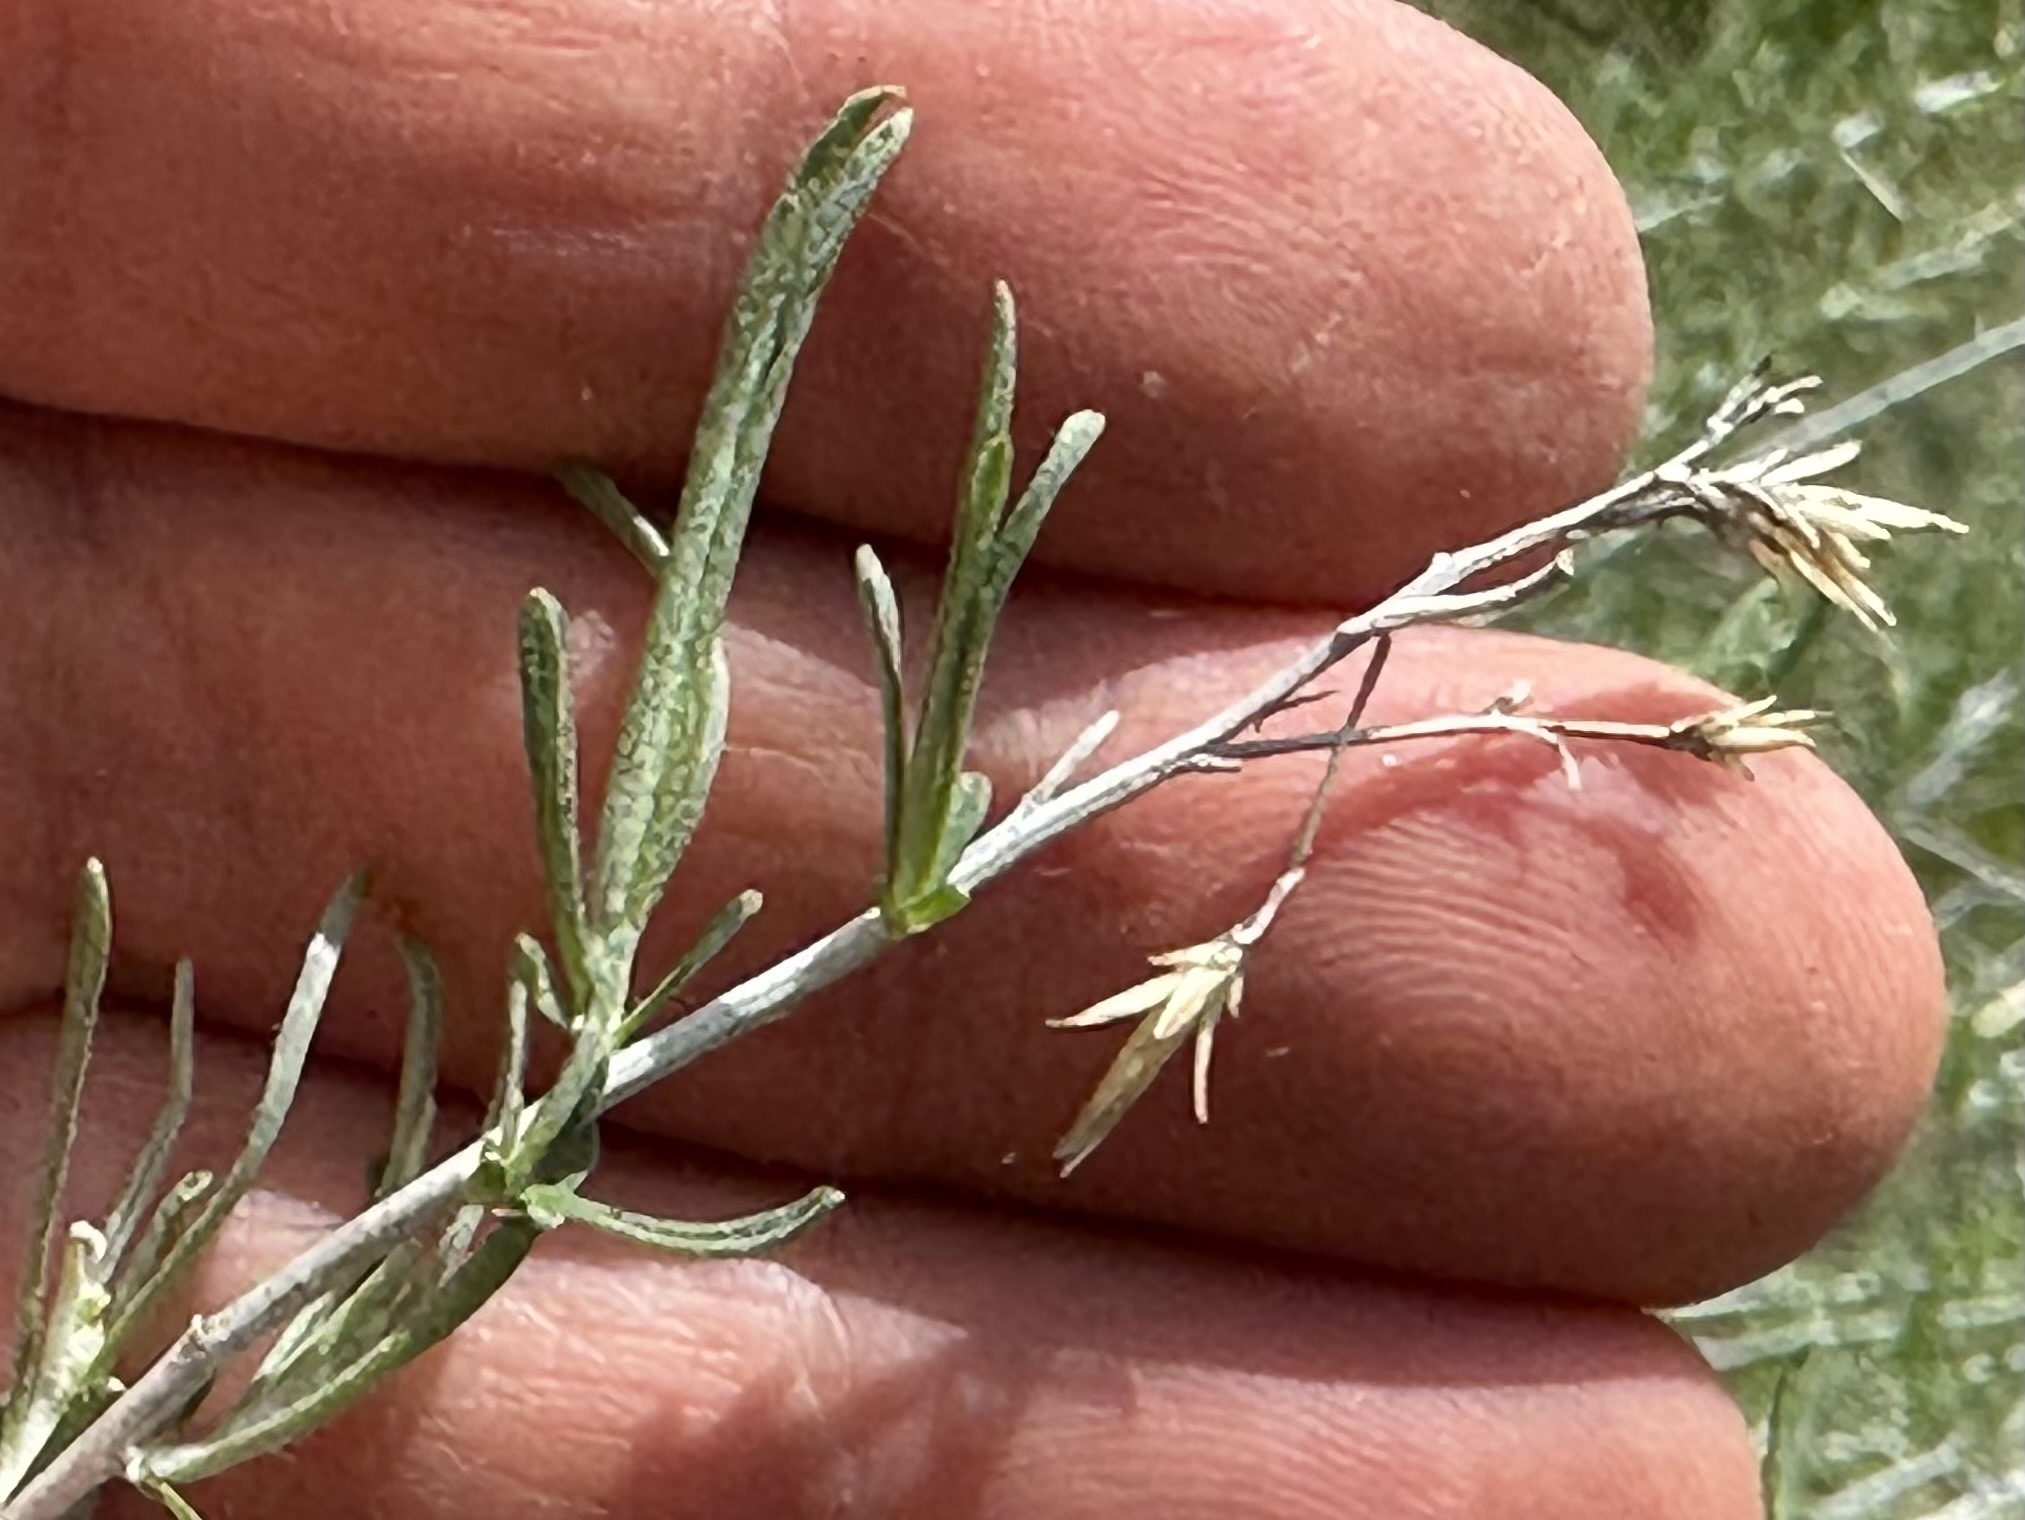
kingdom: Plantae
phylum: Tracheophyta
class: Magnoliopsida
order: Asterales
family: Asteraceae
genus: Ericameria
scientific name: Ericameria nauseosa
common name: Rubber rabbitbrush
